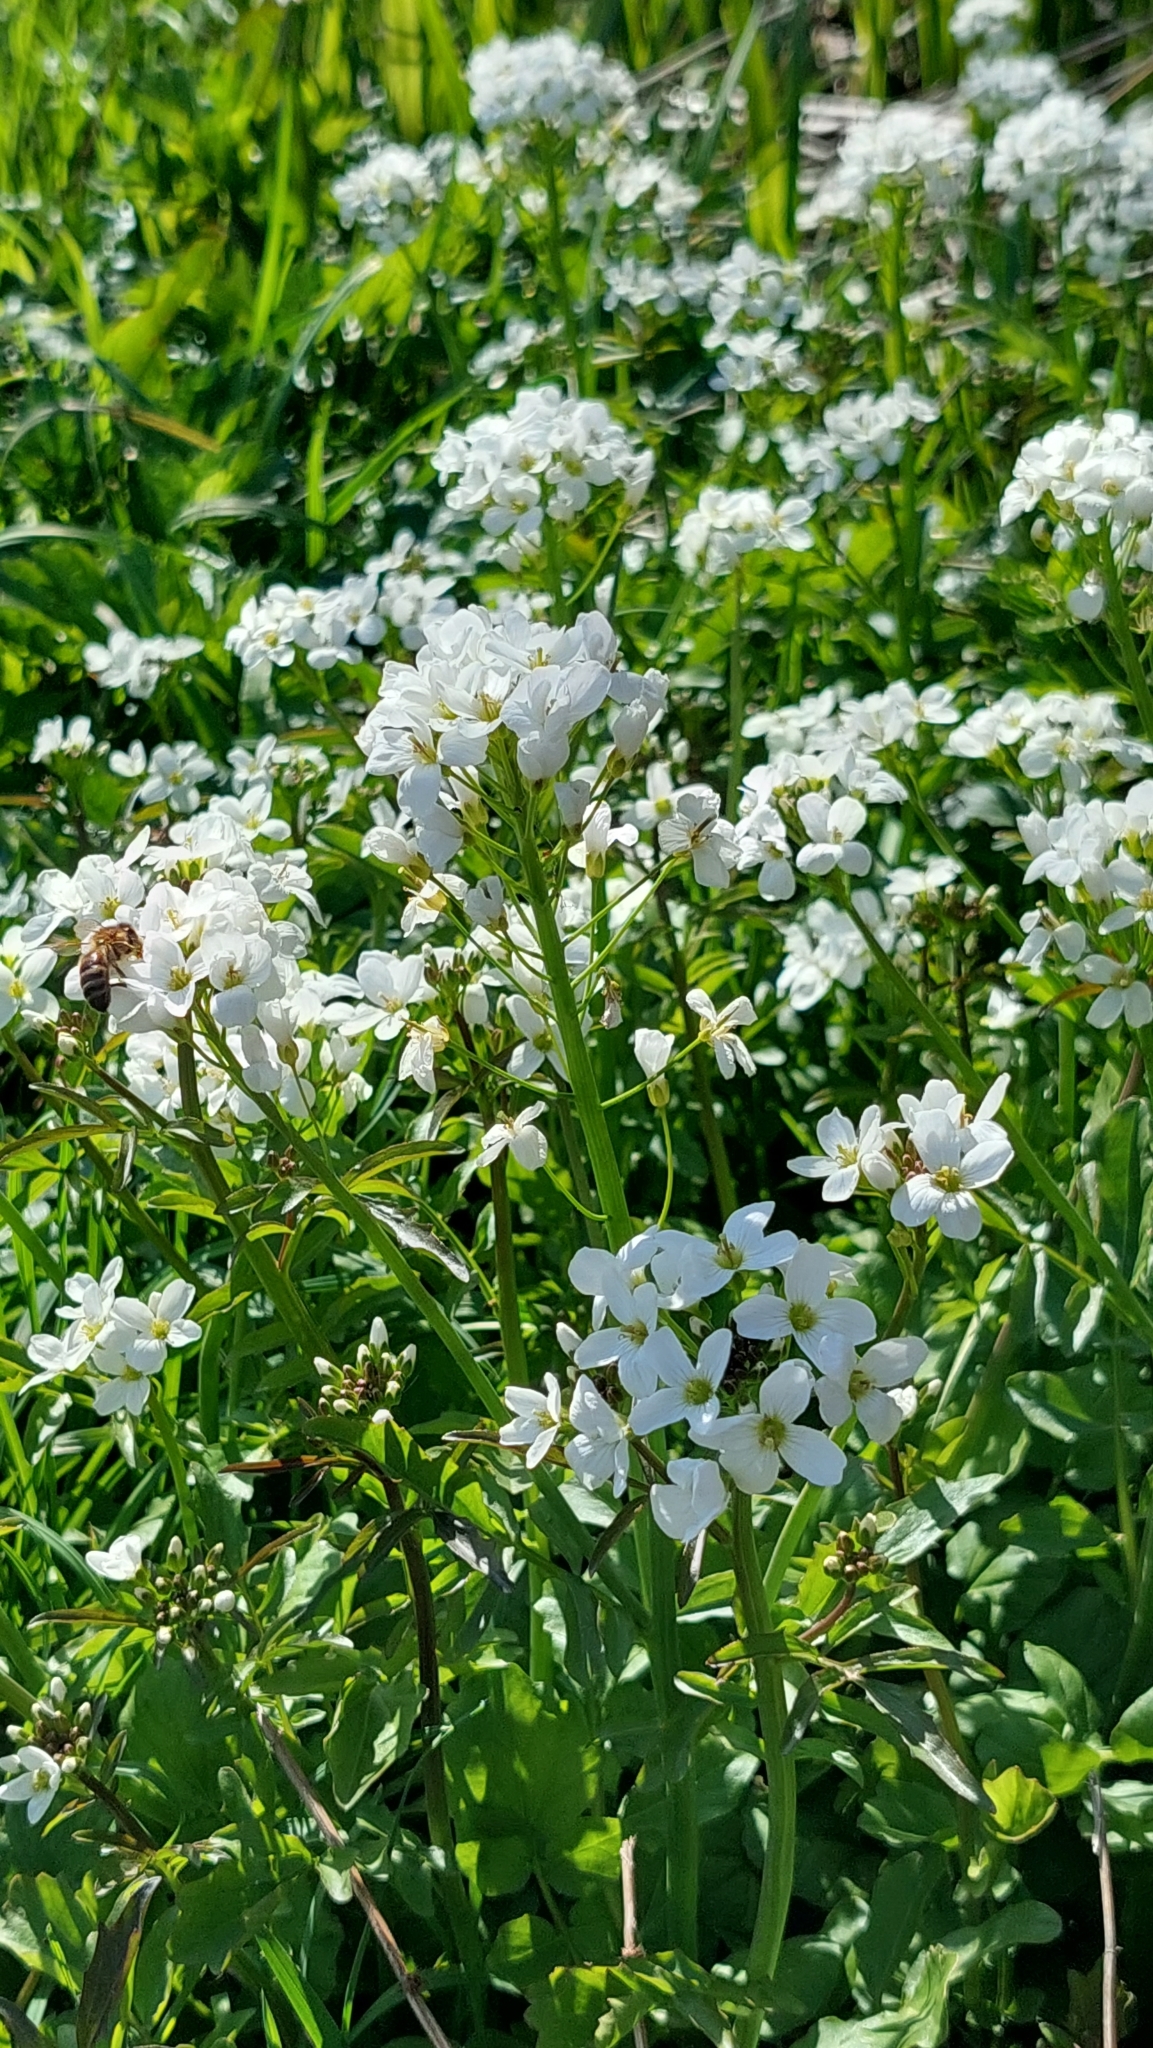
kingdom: Plantae
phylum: Tracheophyta
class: Magnoliopsida
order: Brassicales
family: Brassicaceae
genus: Cardamine
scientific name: Cardamine uliginosa
